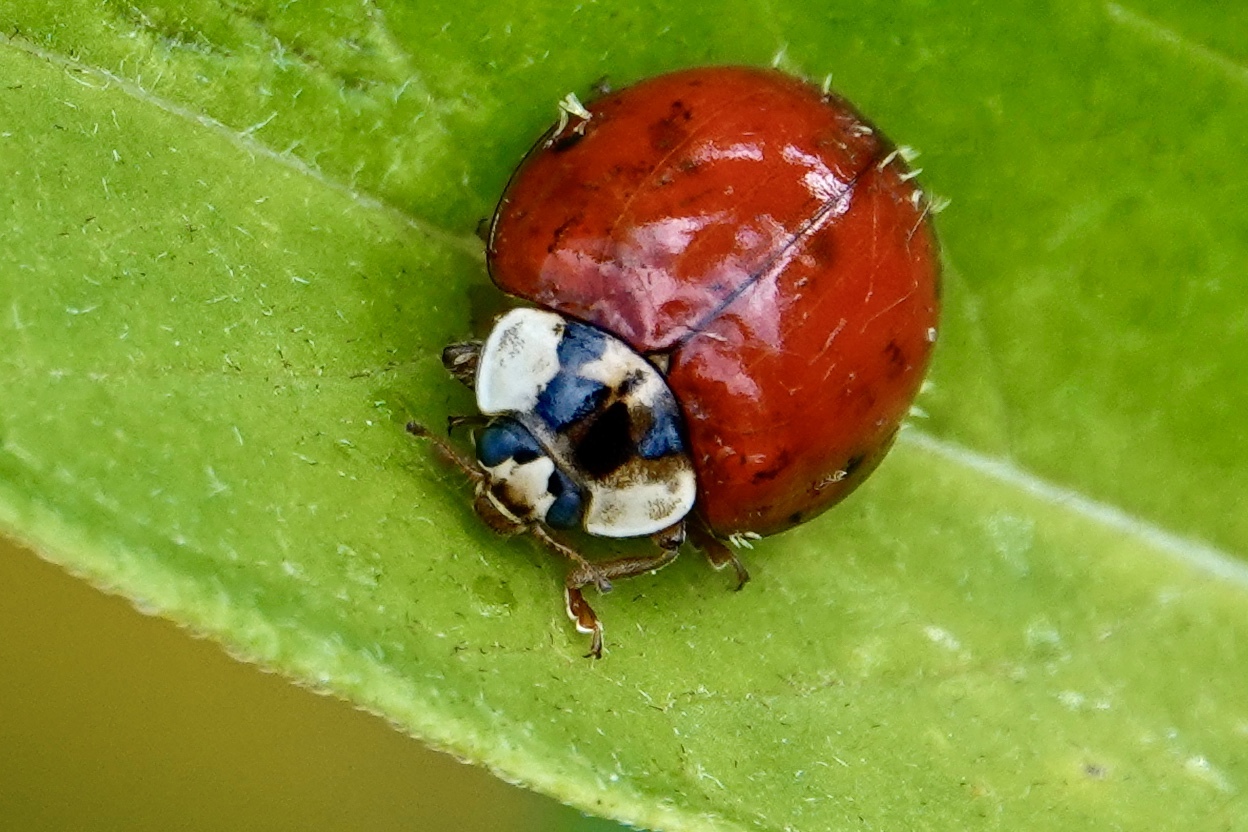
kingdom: Animalia
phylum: Arthropoda
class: Insecta
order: Coleoptera
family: Coccinellidae
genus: Harmonia
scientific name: Harmonia axyridis
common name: Harlequin ladybird
